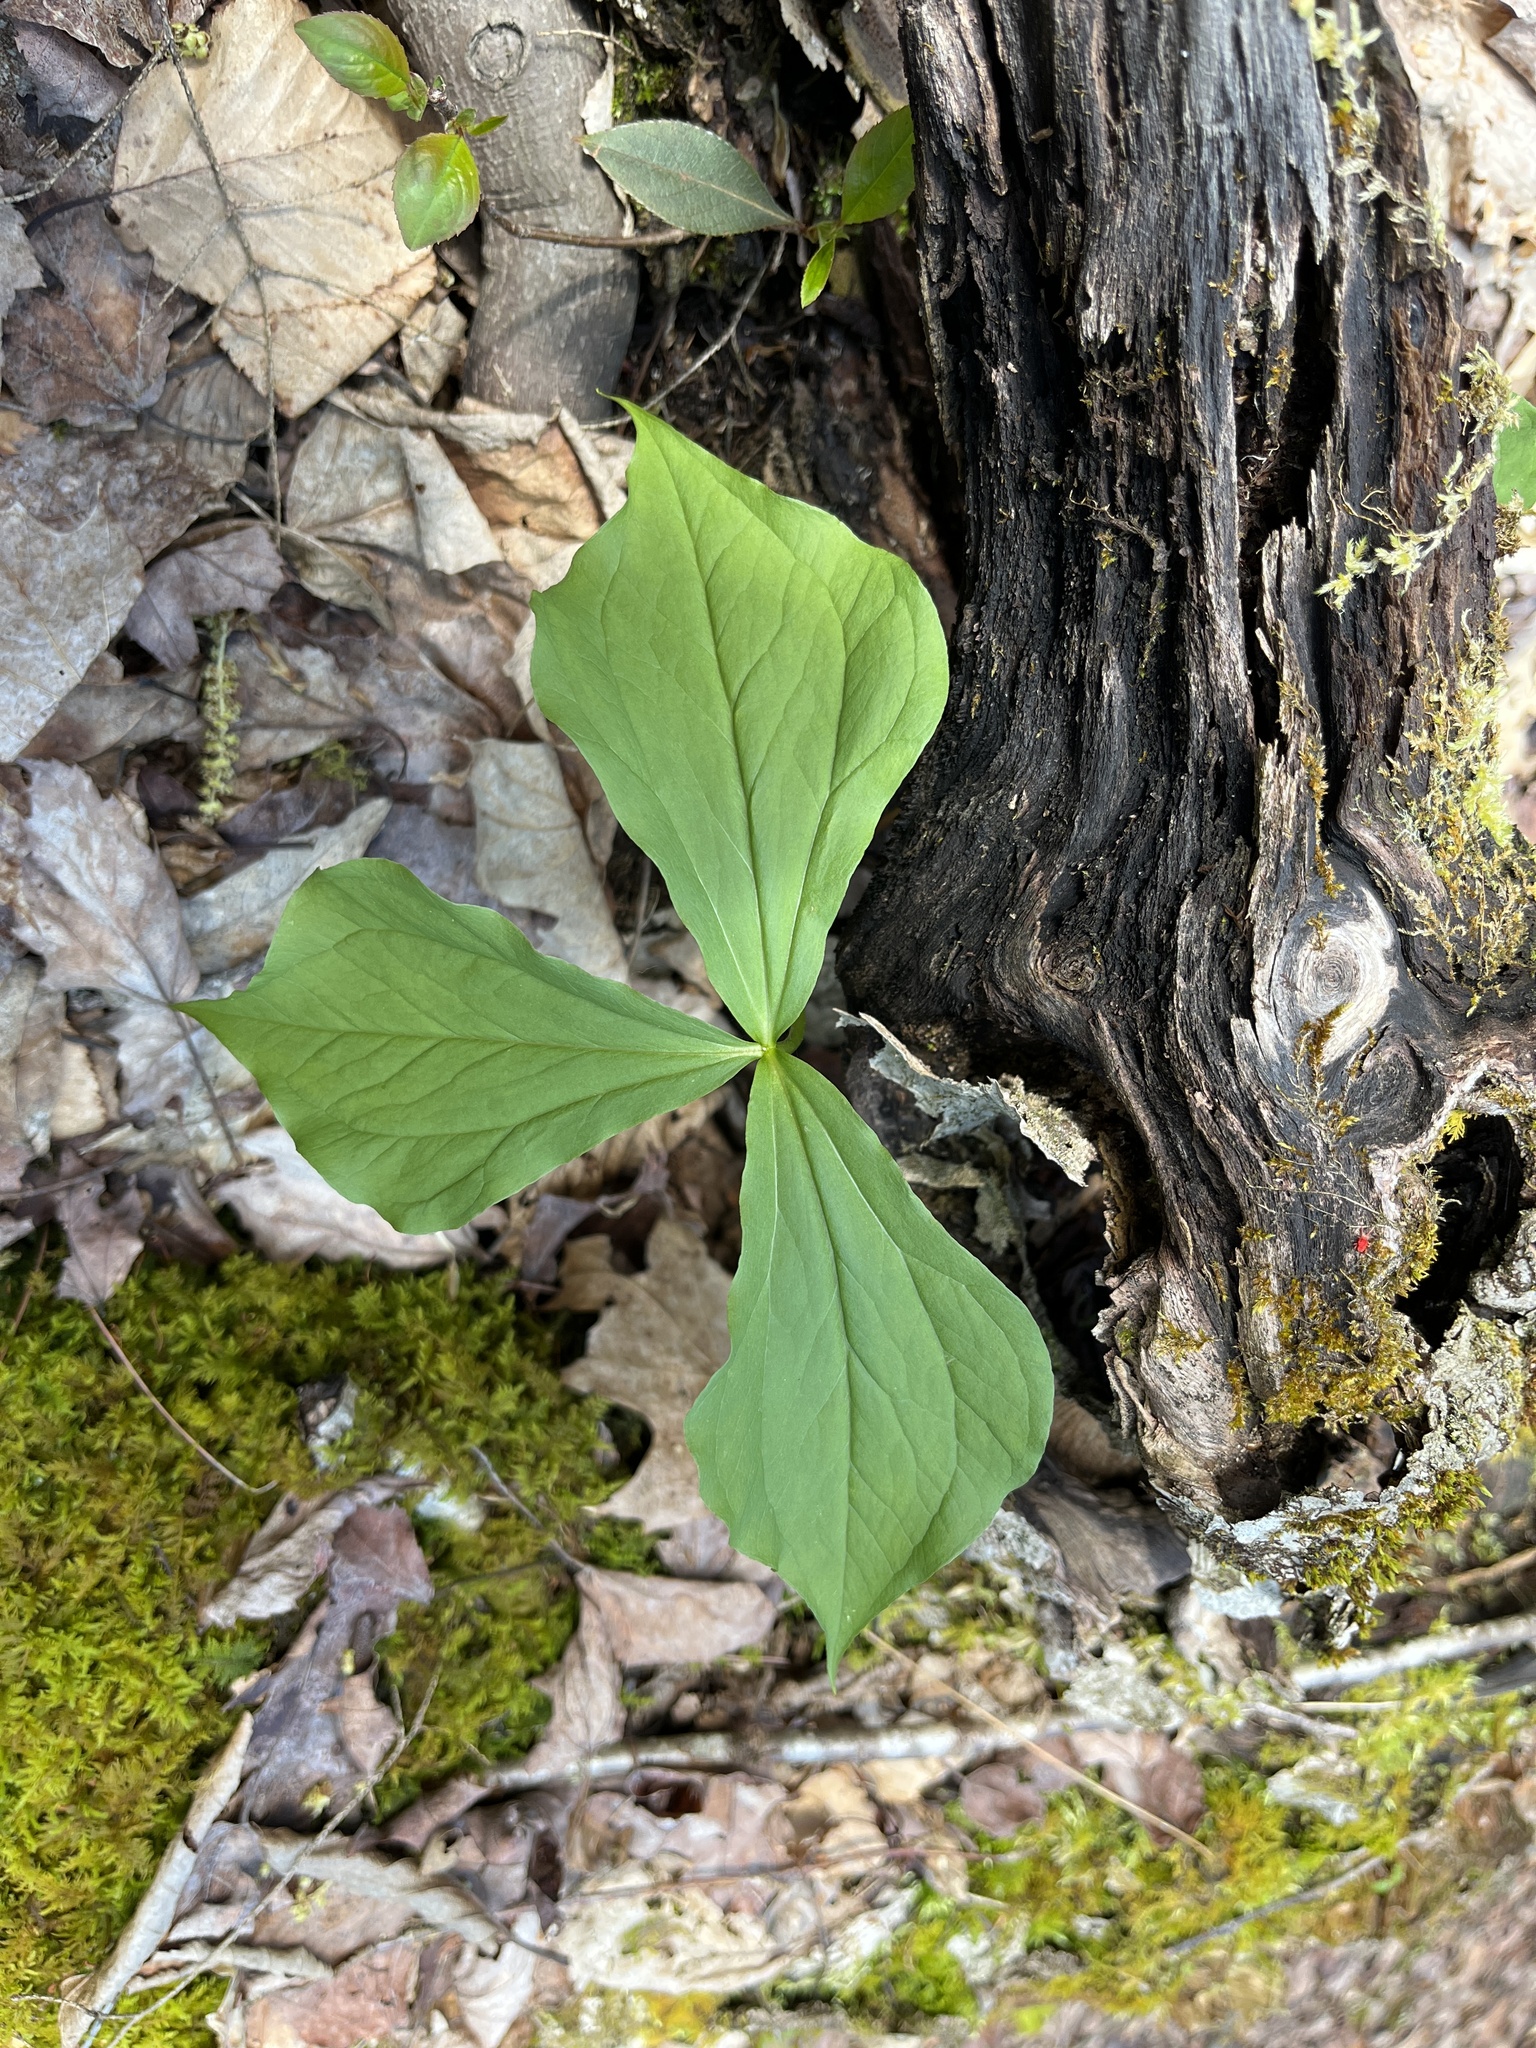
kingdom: Plantae
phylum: Tracheophyta
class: Liliopsida
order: Liliales
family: Melanthiaceae
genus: Trillium
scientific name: Trillium erectum
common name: Purple trillium
